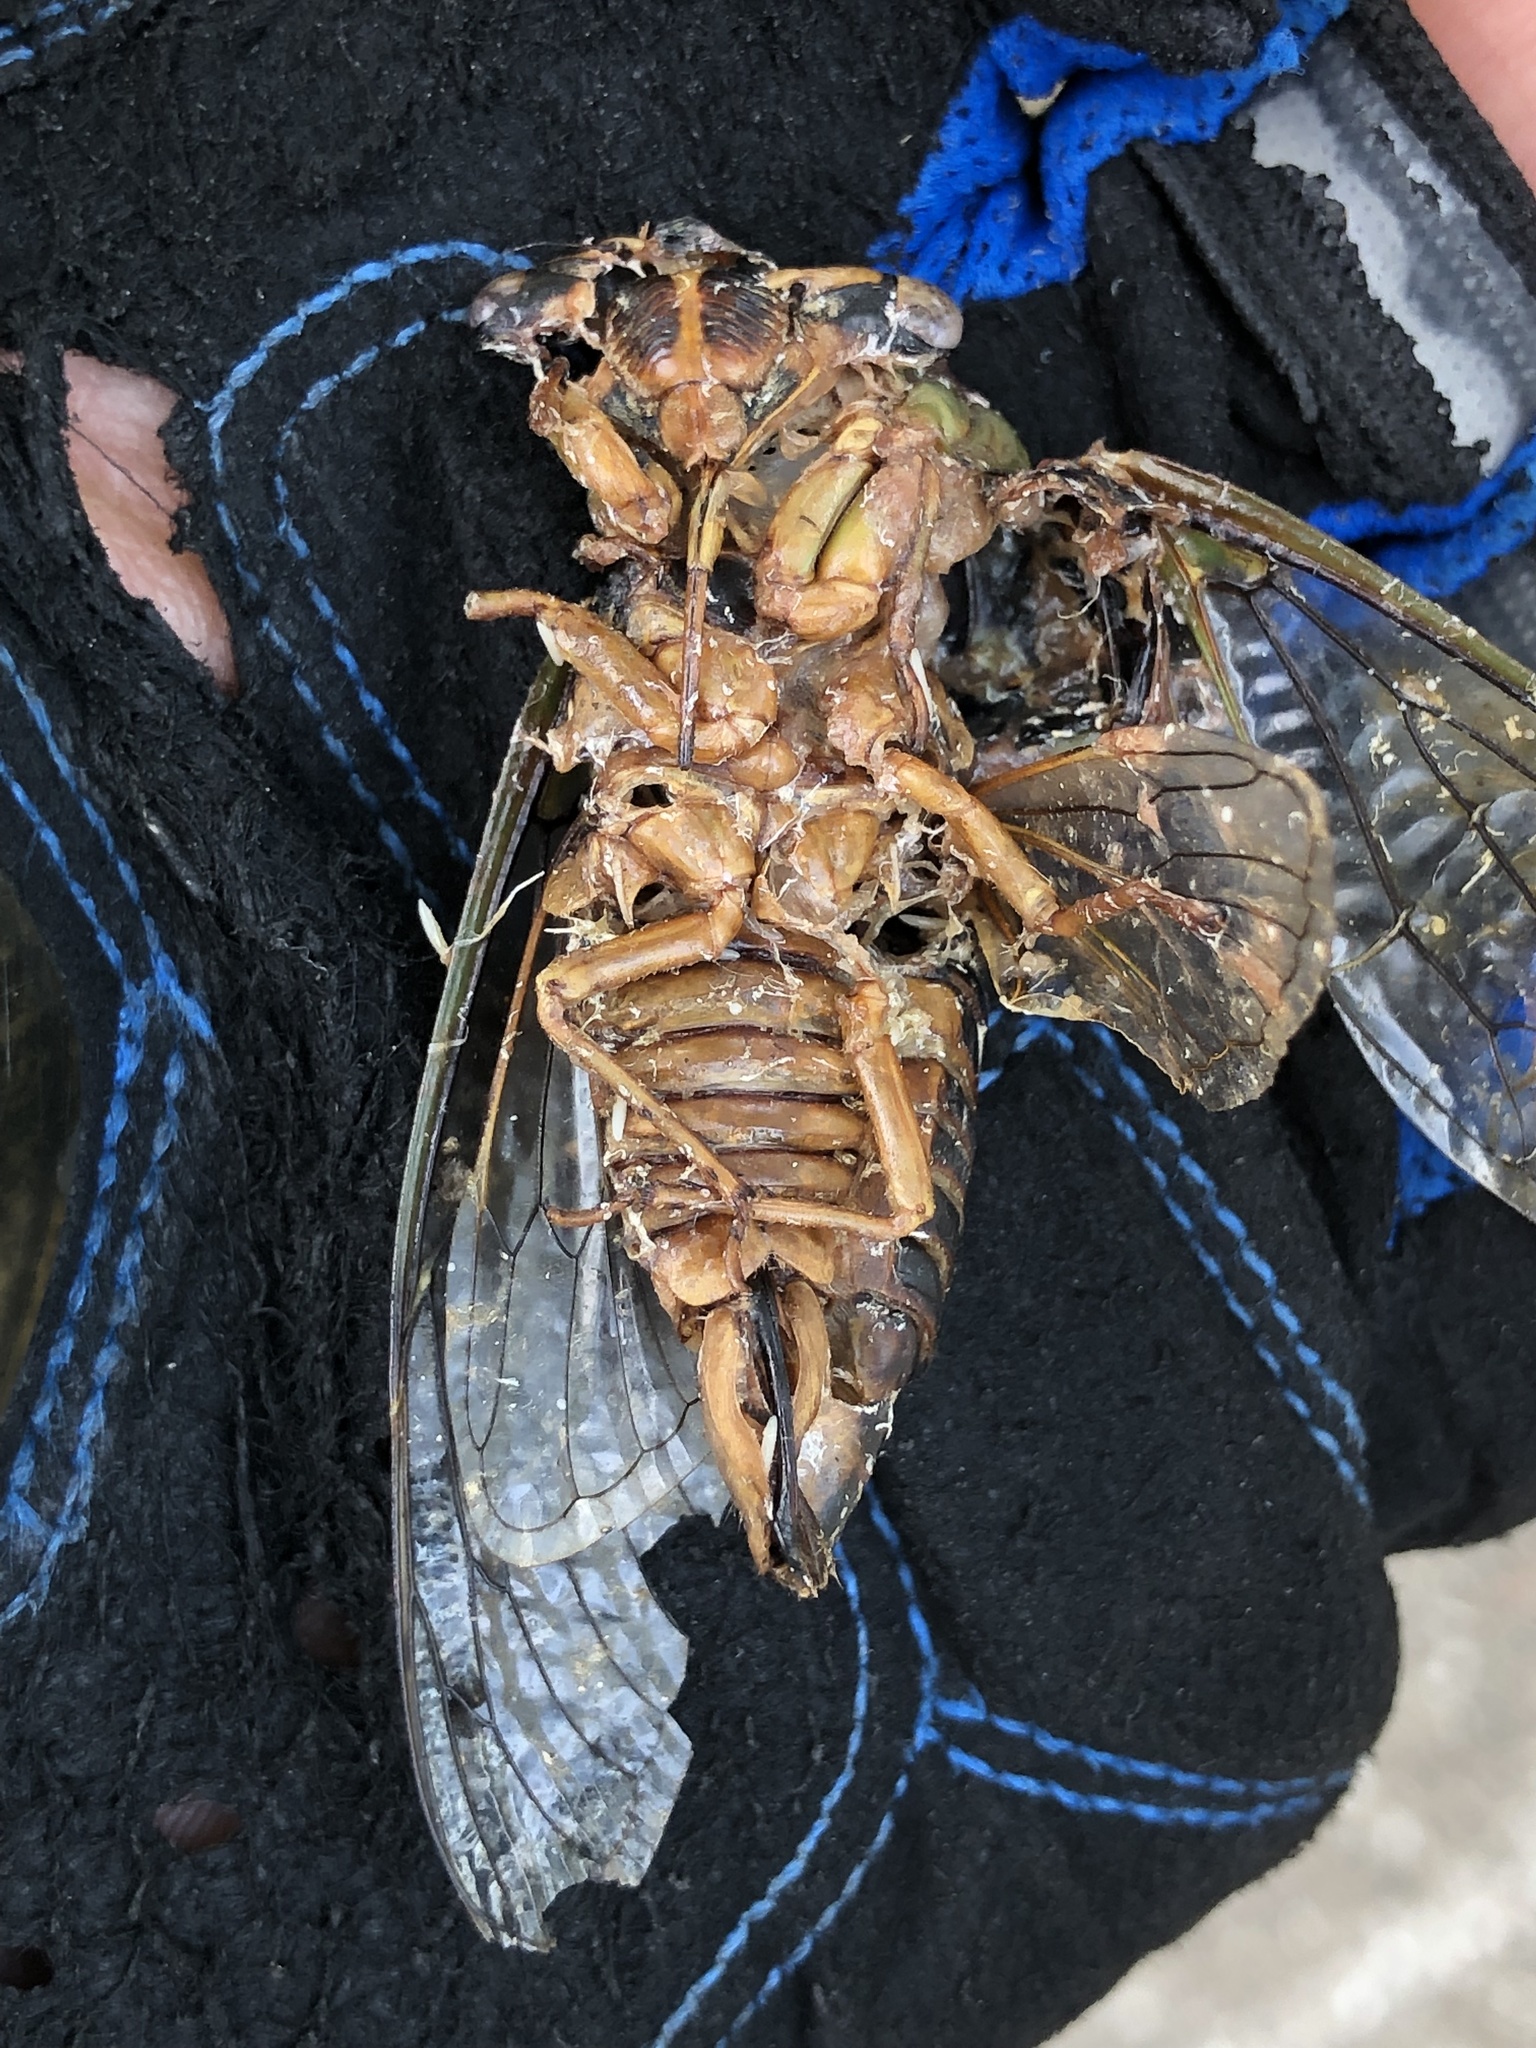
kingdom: Animalia
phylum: Arthropoda
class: Insecta
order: Hemiptera
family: Cicadidae
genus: Megatibicen
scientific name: Megatibicen resh
